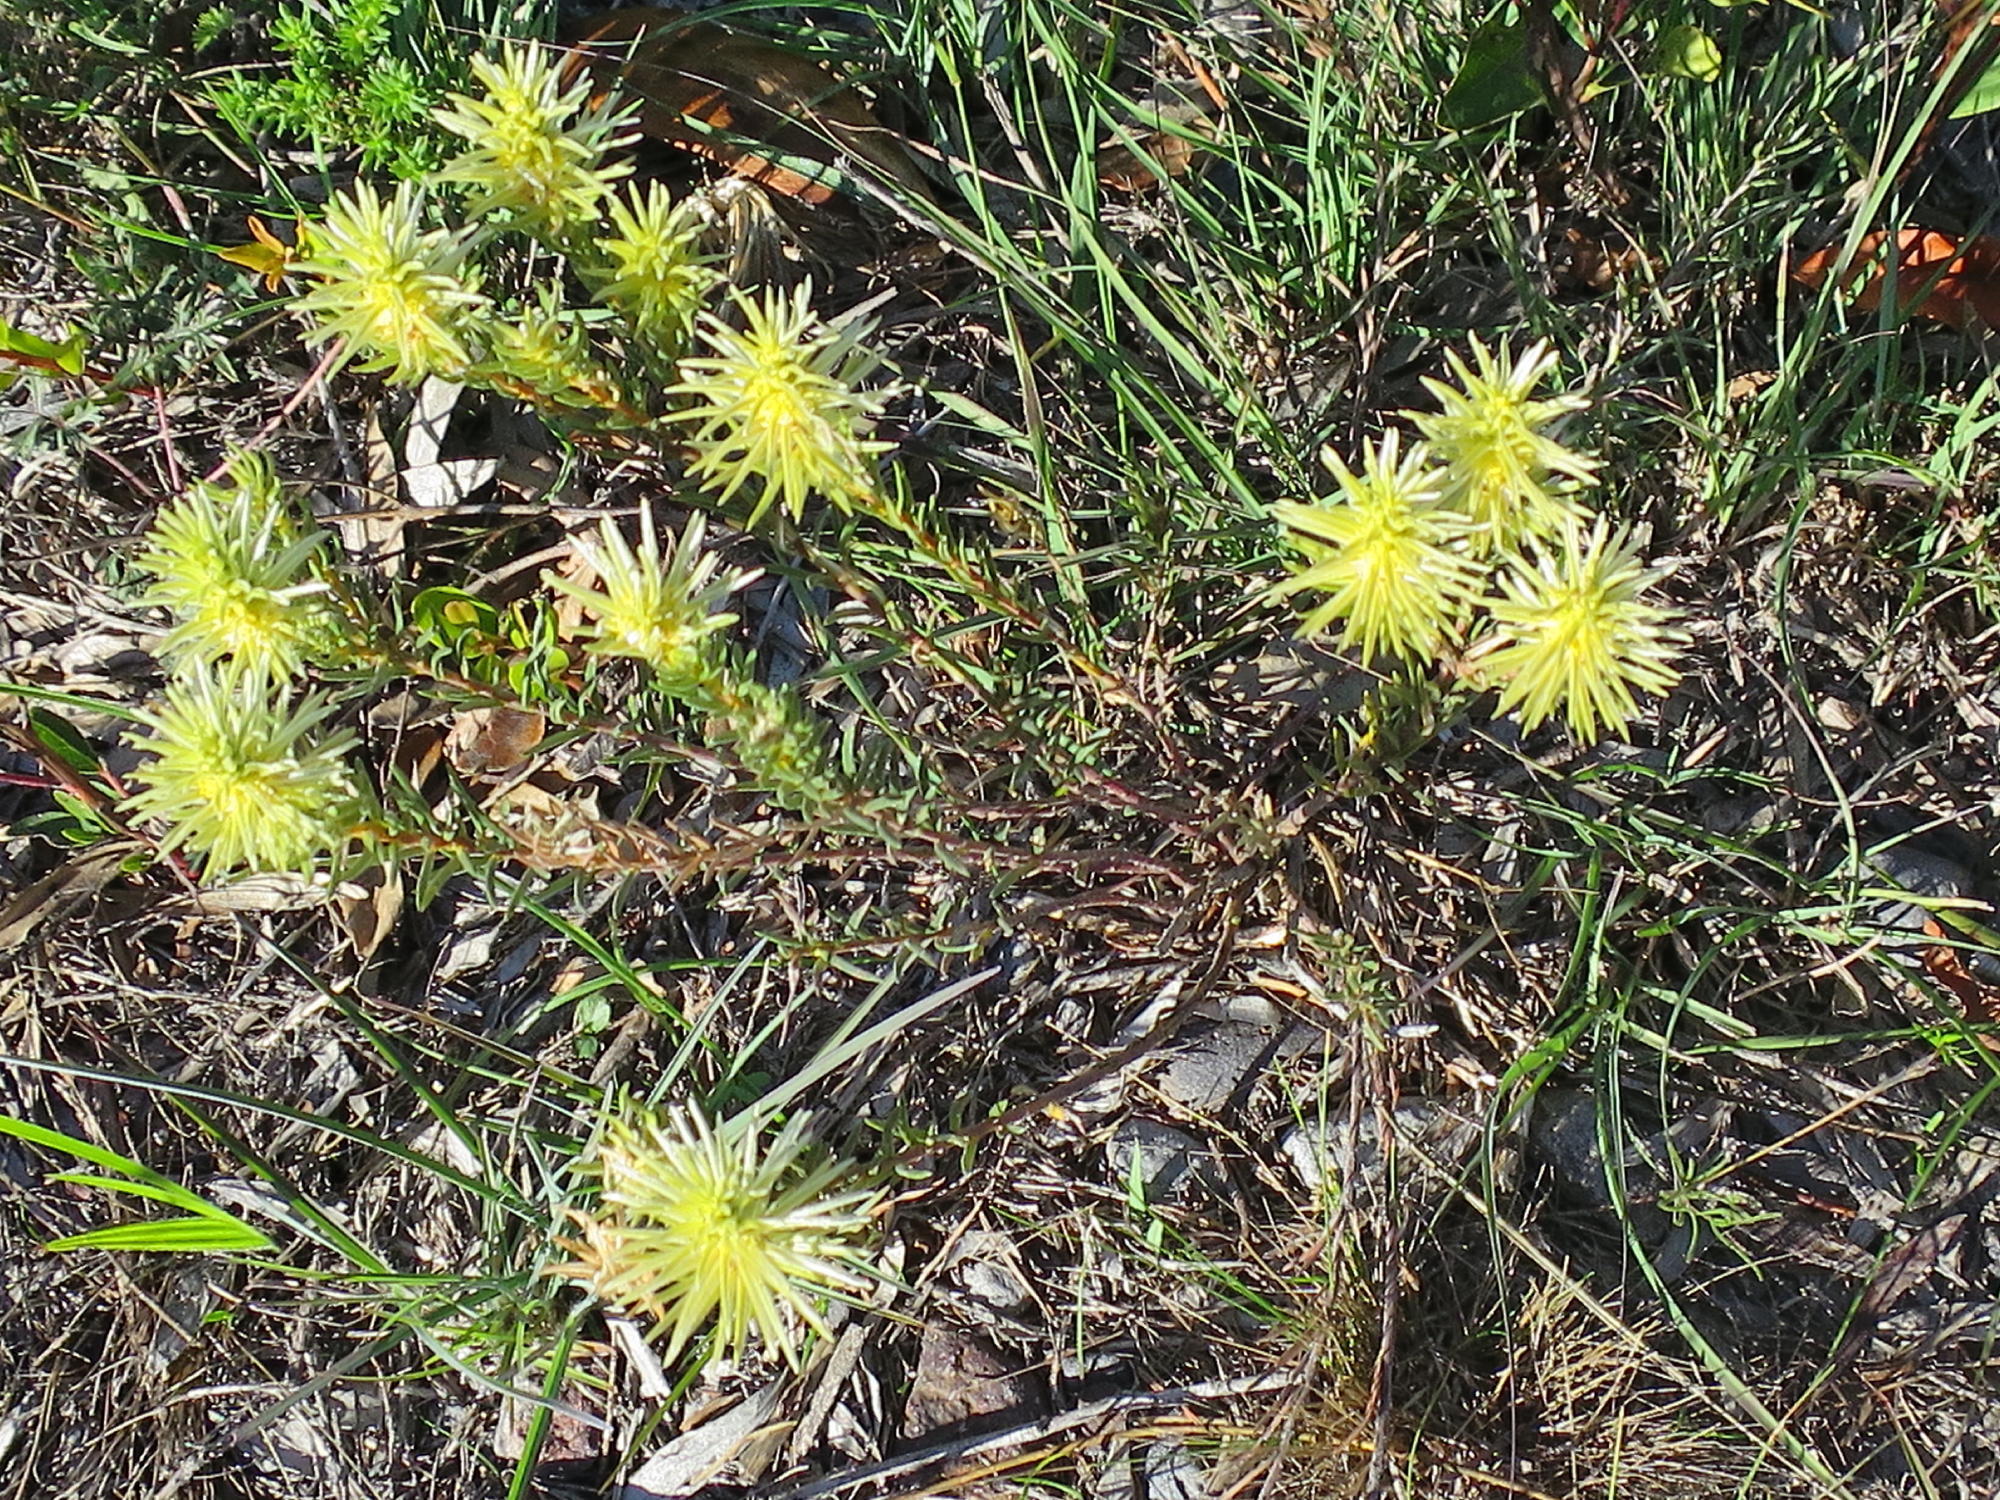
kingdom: Plantae
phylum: Tracheophyta
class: Magnoliopsida
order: Rosales
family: Rhamnaceae
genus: Phylica
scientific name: Phylica velutina
